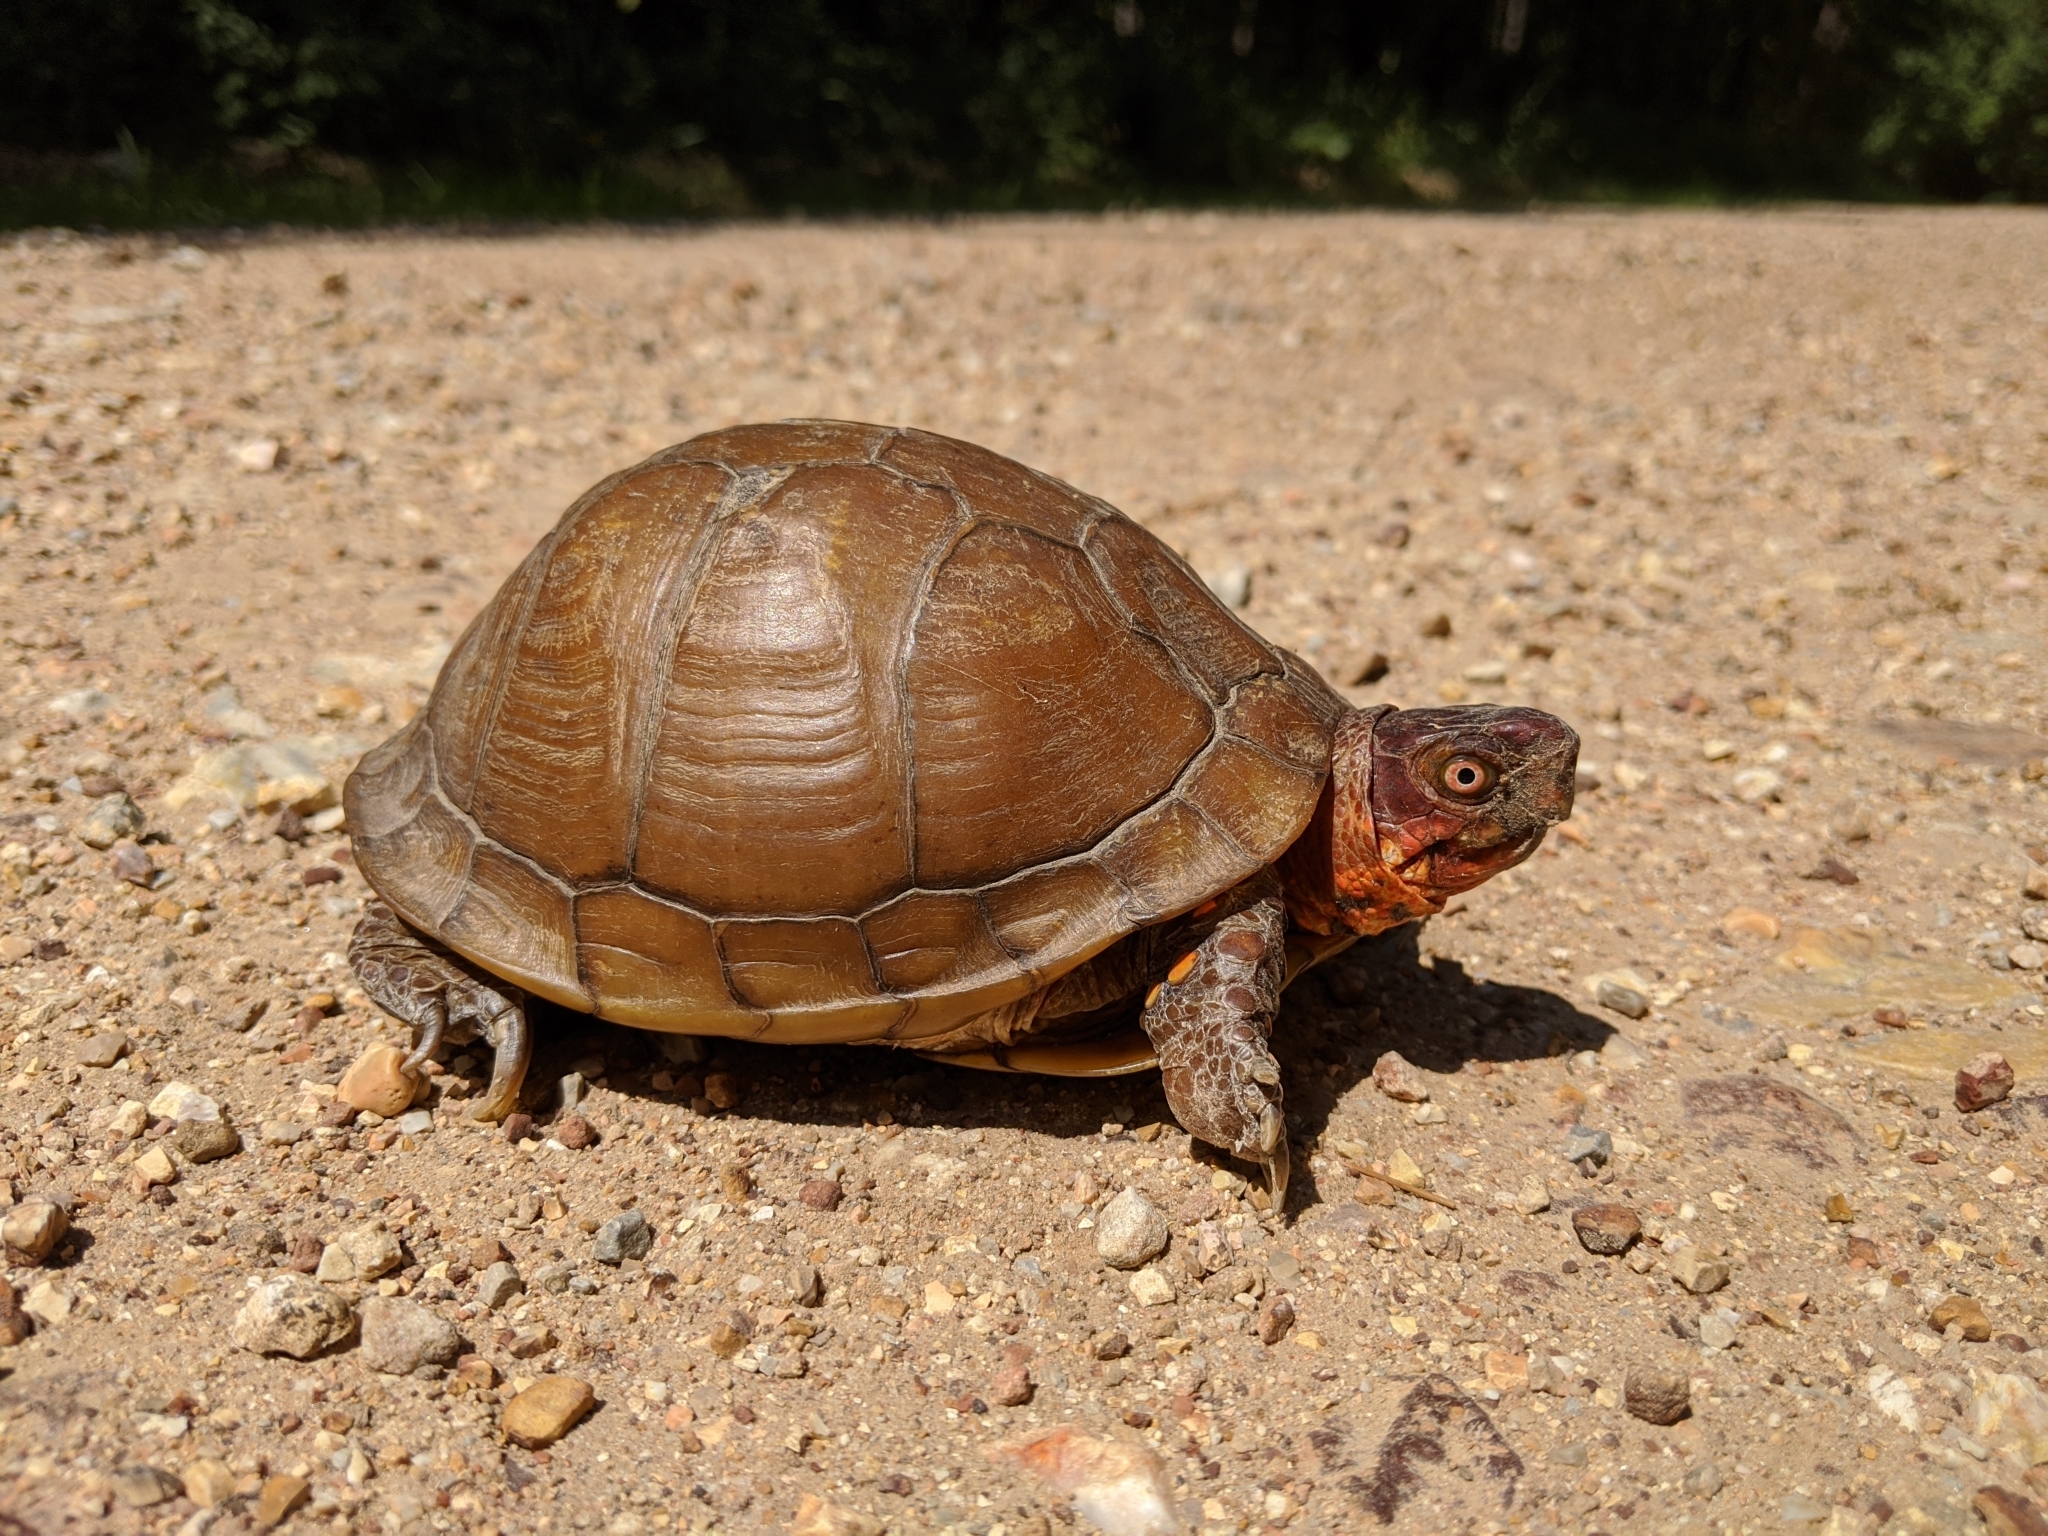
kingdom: Animalia
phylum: Chordata
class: Testudines
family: Emydidae
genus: Terrapene
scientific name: Terrapene carolina
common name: Common box turtle
